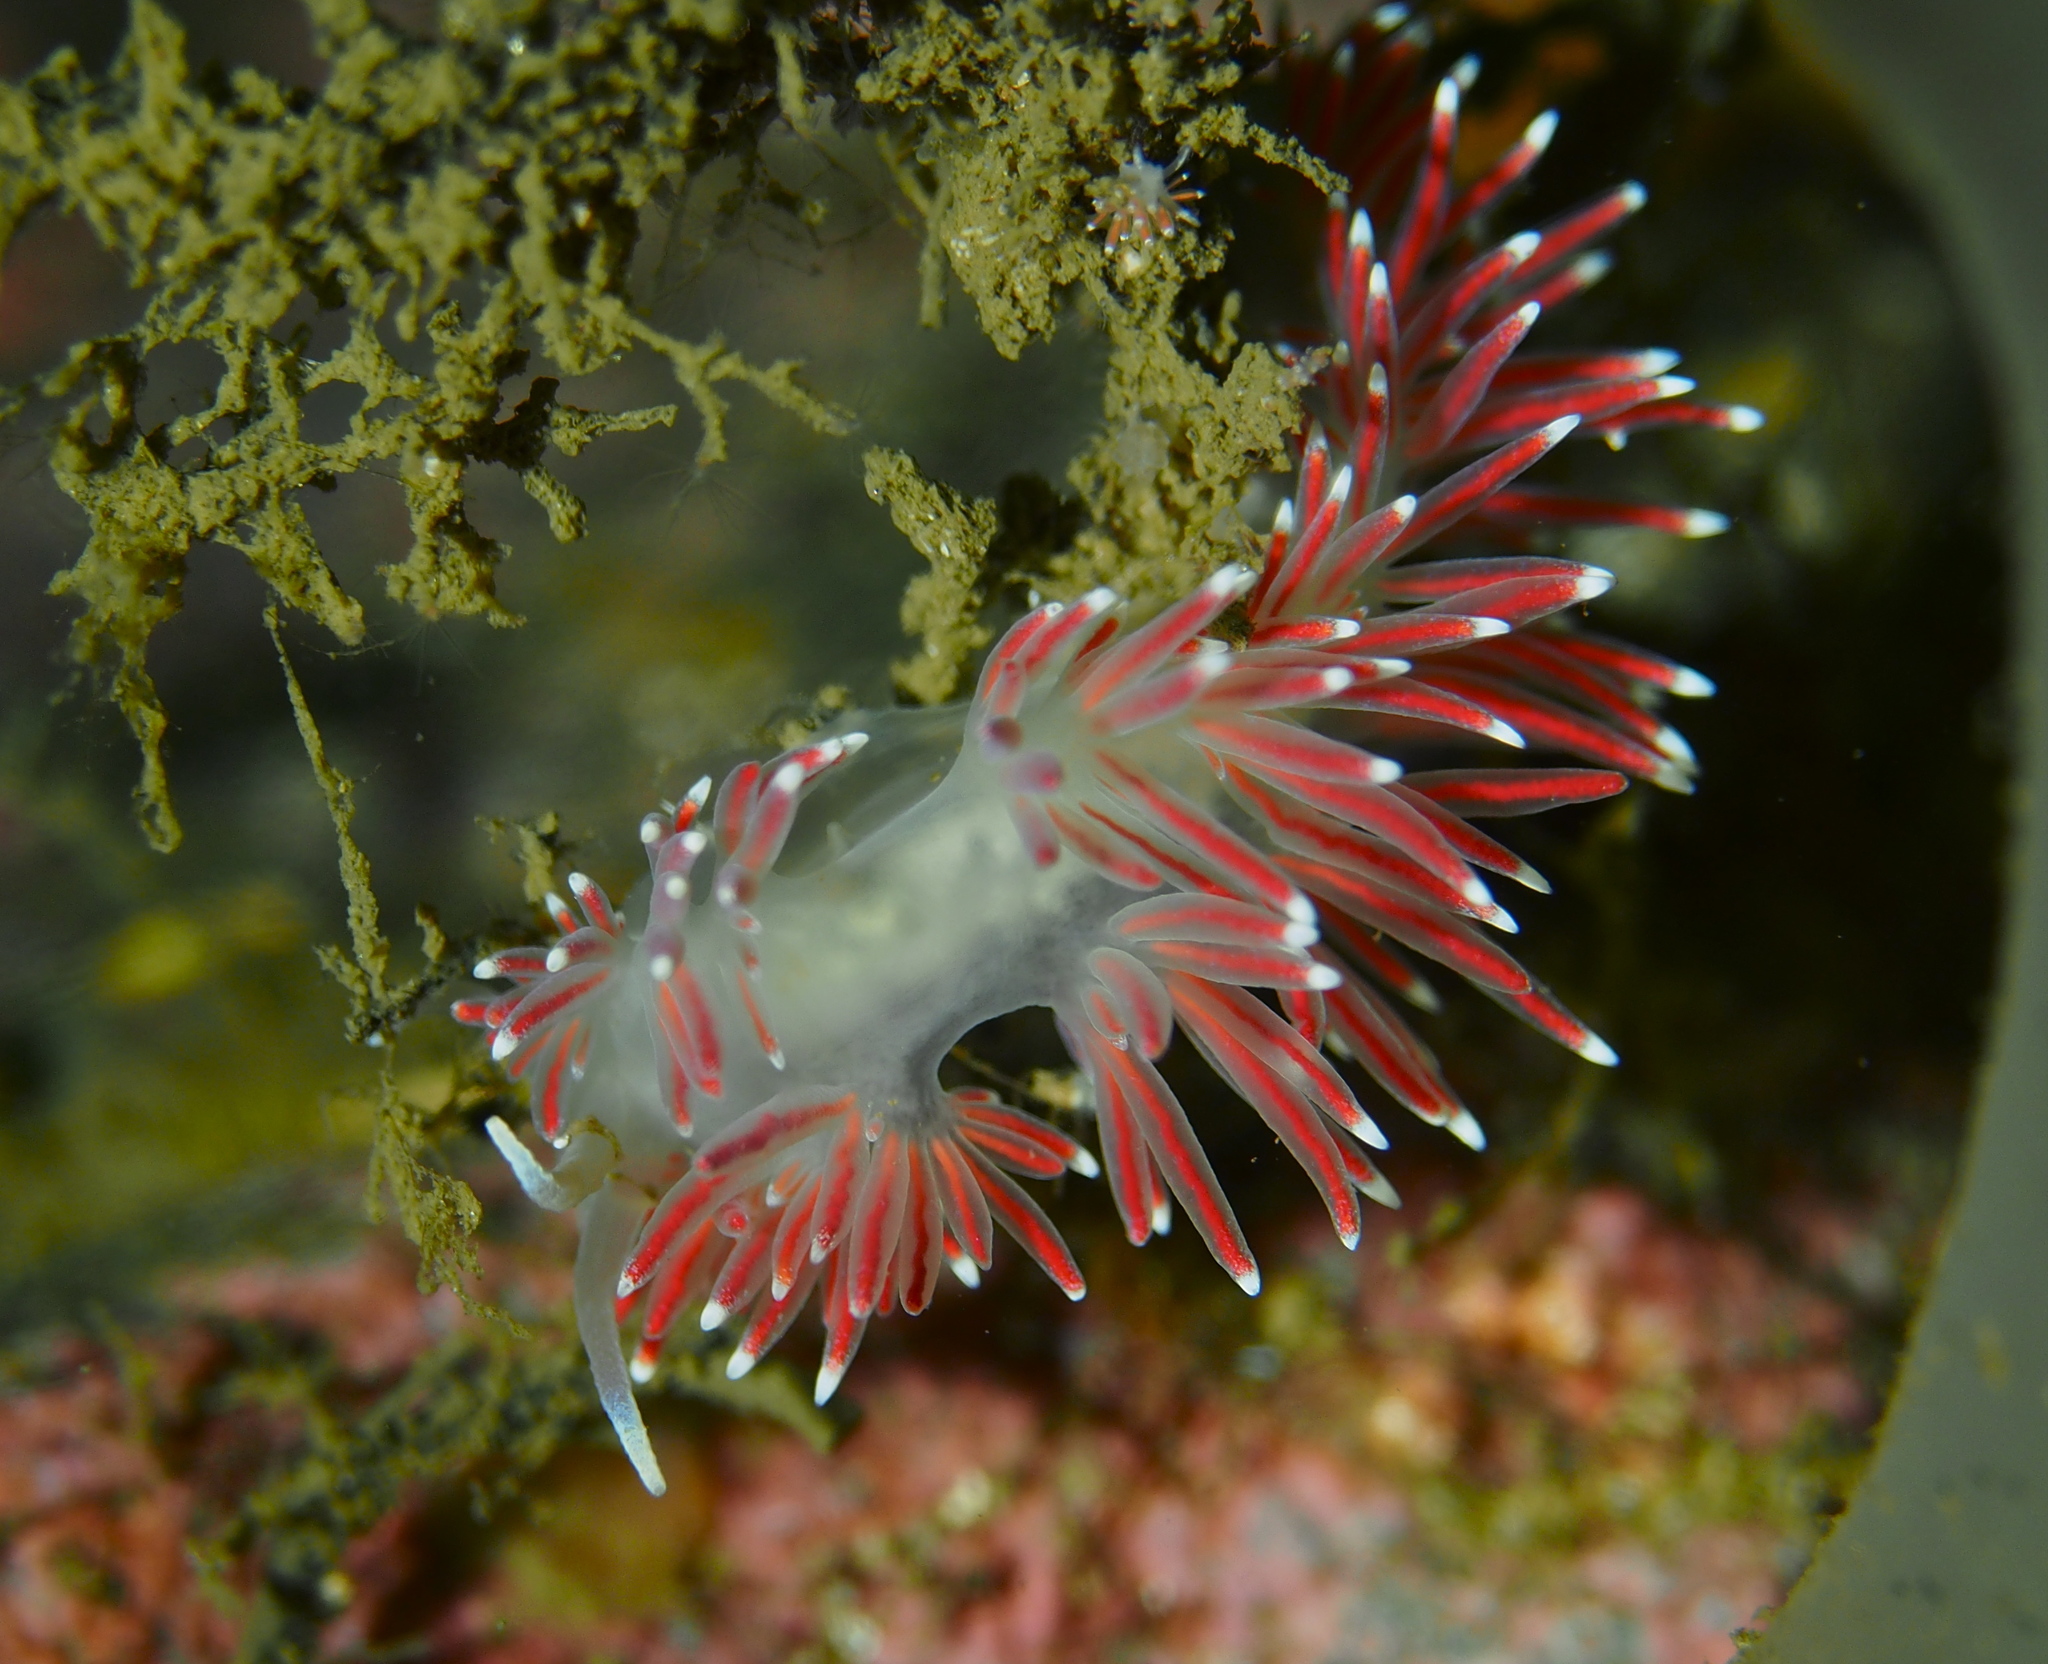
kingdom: Animalia
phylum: Mollusca
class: Gastropoda
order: Nudibranchia
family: Flabellinidae
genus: Carronella
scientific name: Carronella pellucida
